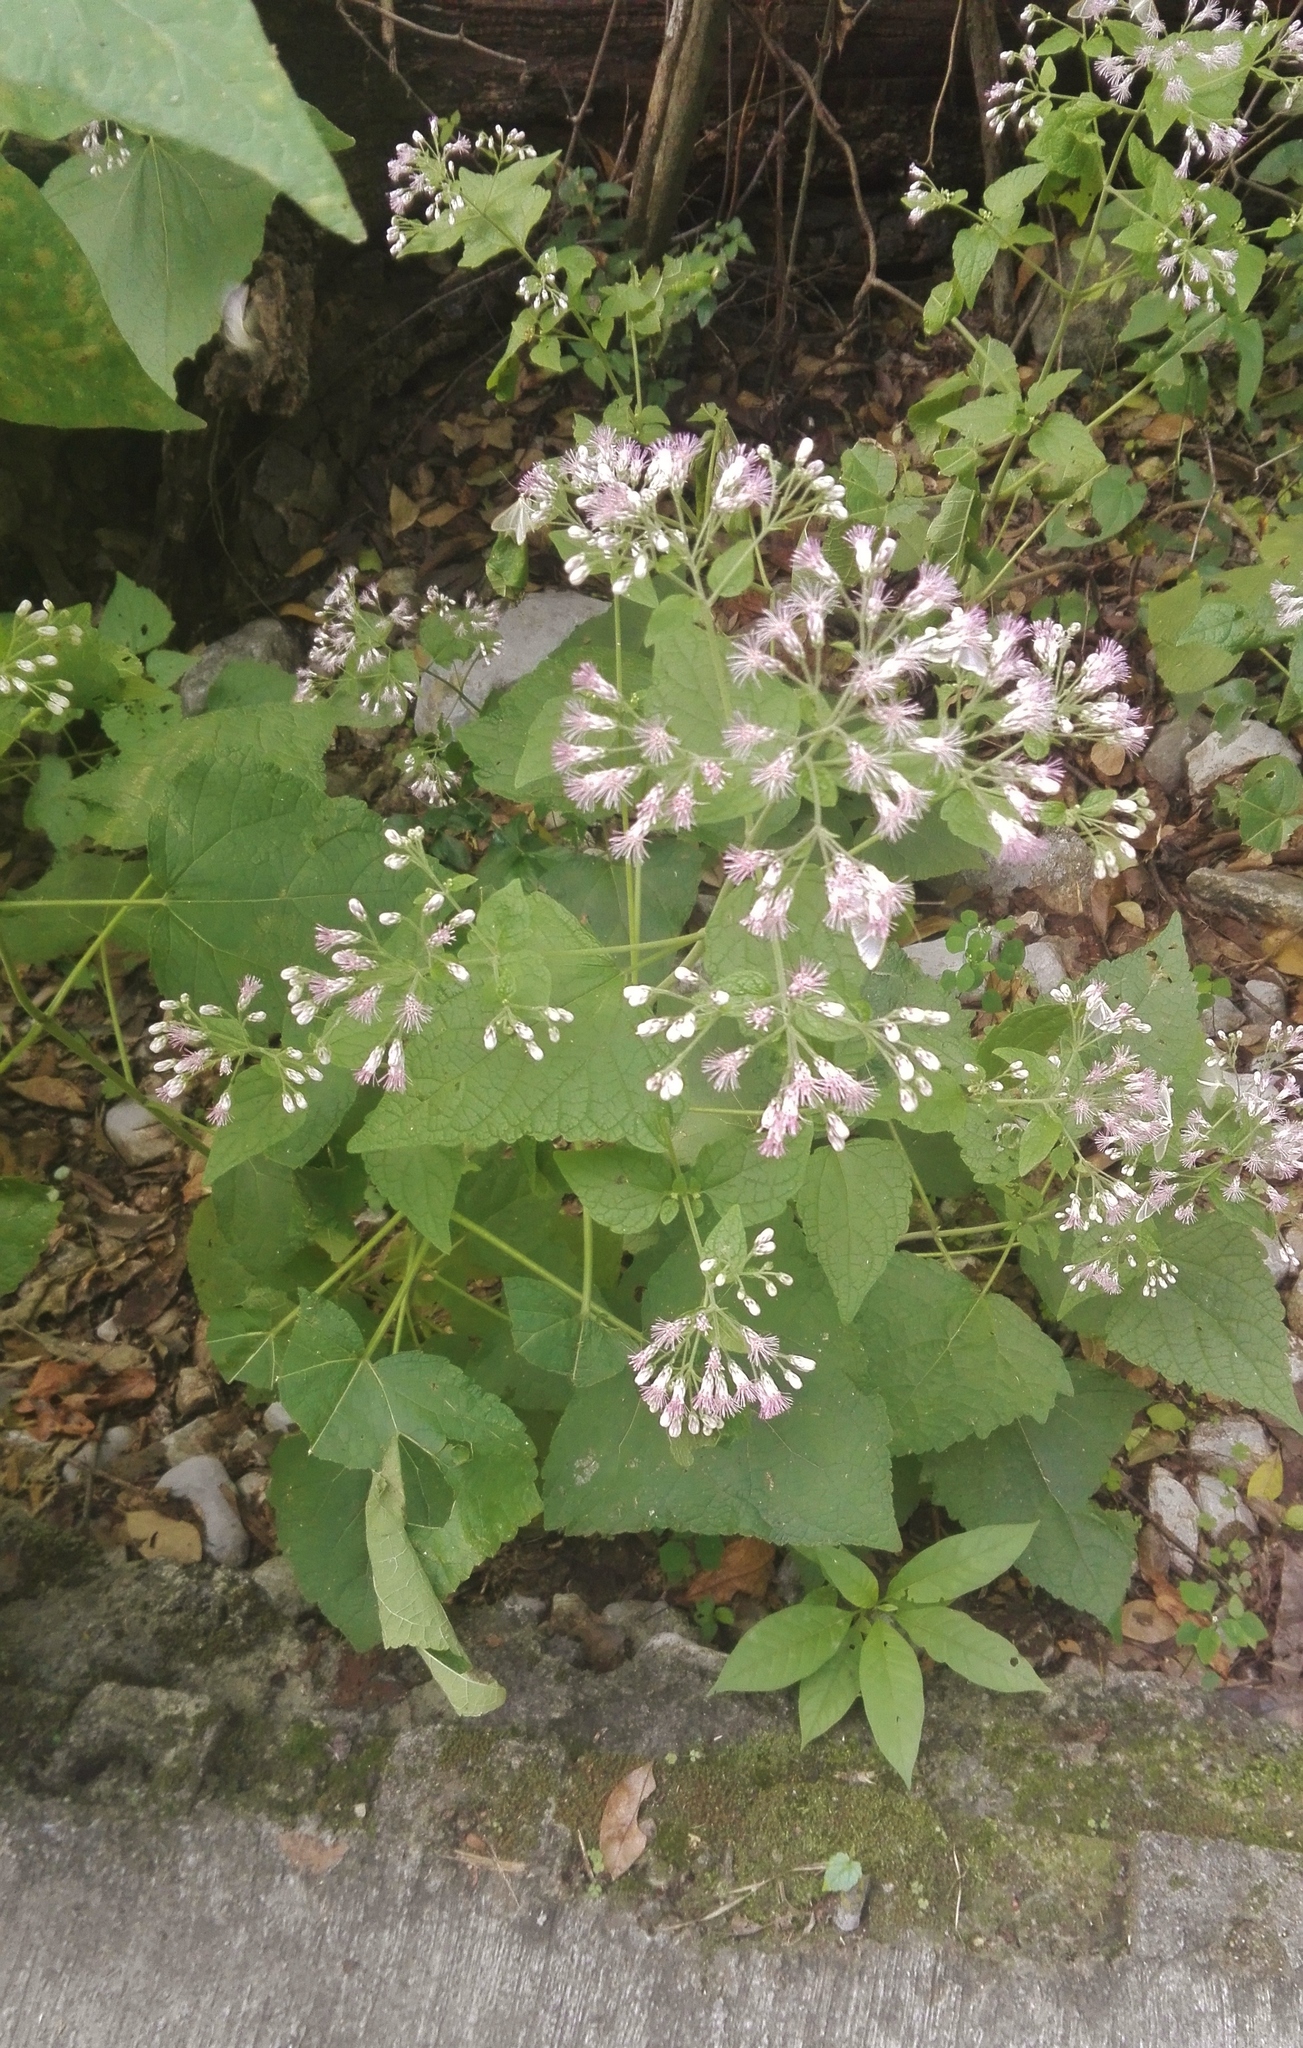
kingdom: Plantae
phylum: Tracheophyta
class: Magnoliopsida
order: Asterales
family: Asteraceae
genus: Peteravenia
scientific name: Peteravenia malvifolia
